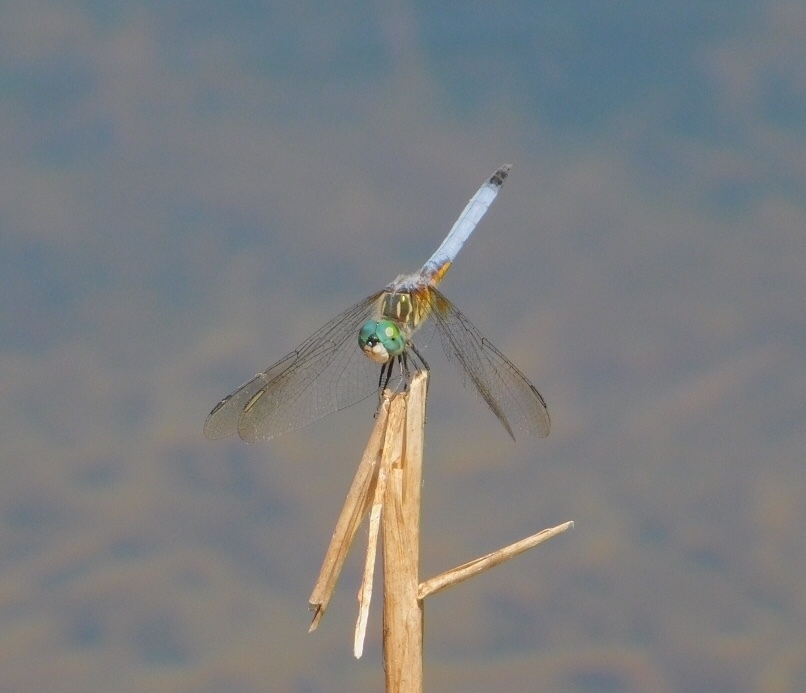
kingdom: Animalia
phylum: Arthropoda
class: Insecta
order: Odonata
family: Libellulidae
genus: Pachydiplax
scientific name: Pachydiplax longipennis
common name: Blue dasher
